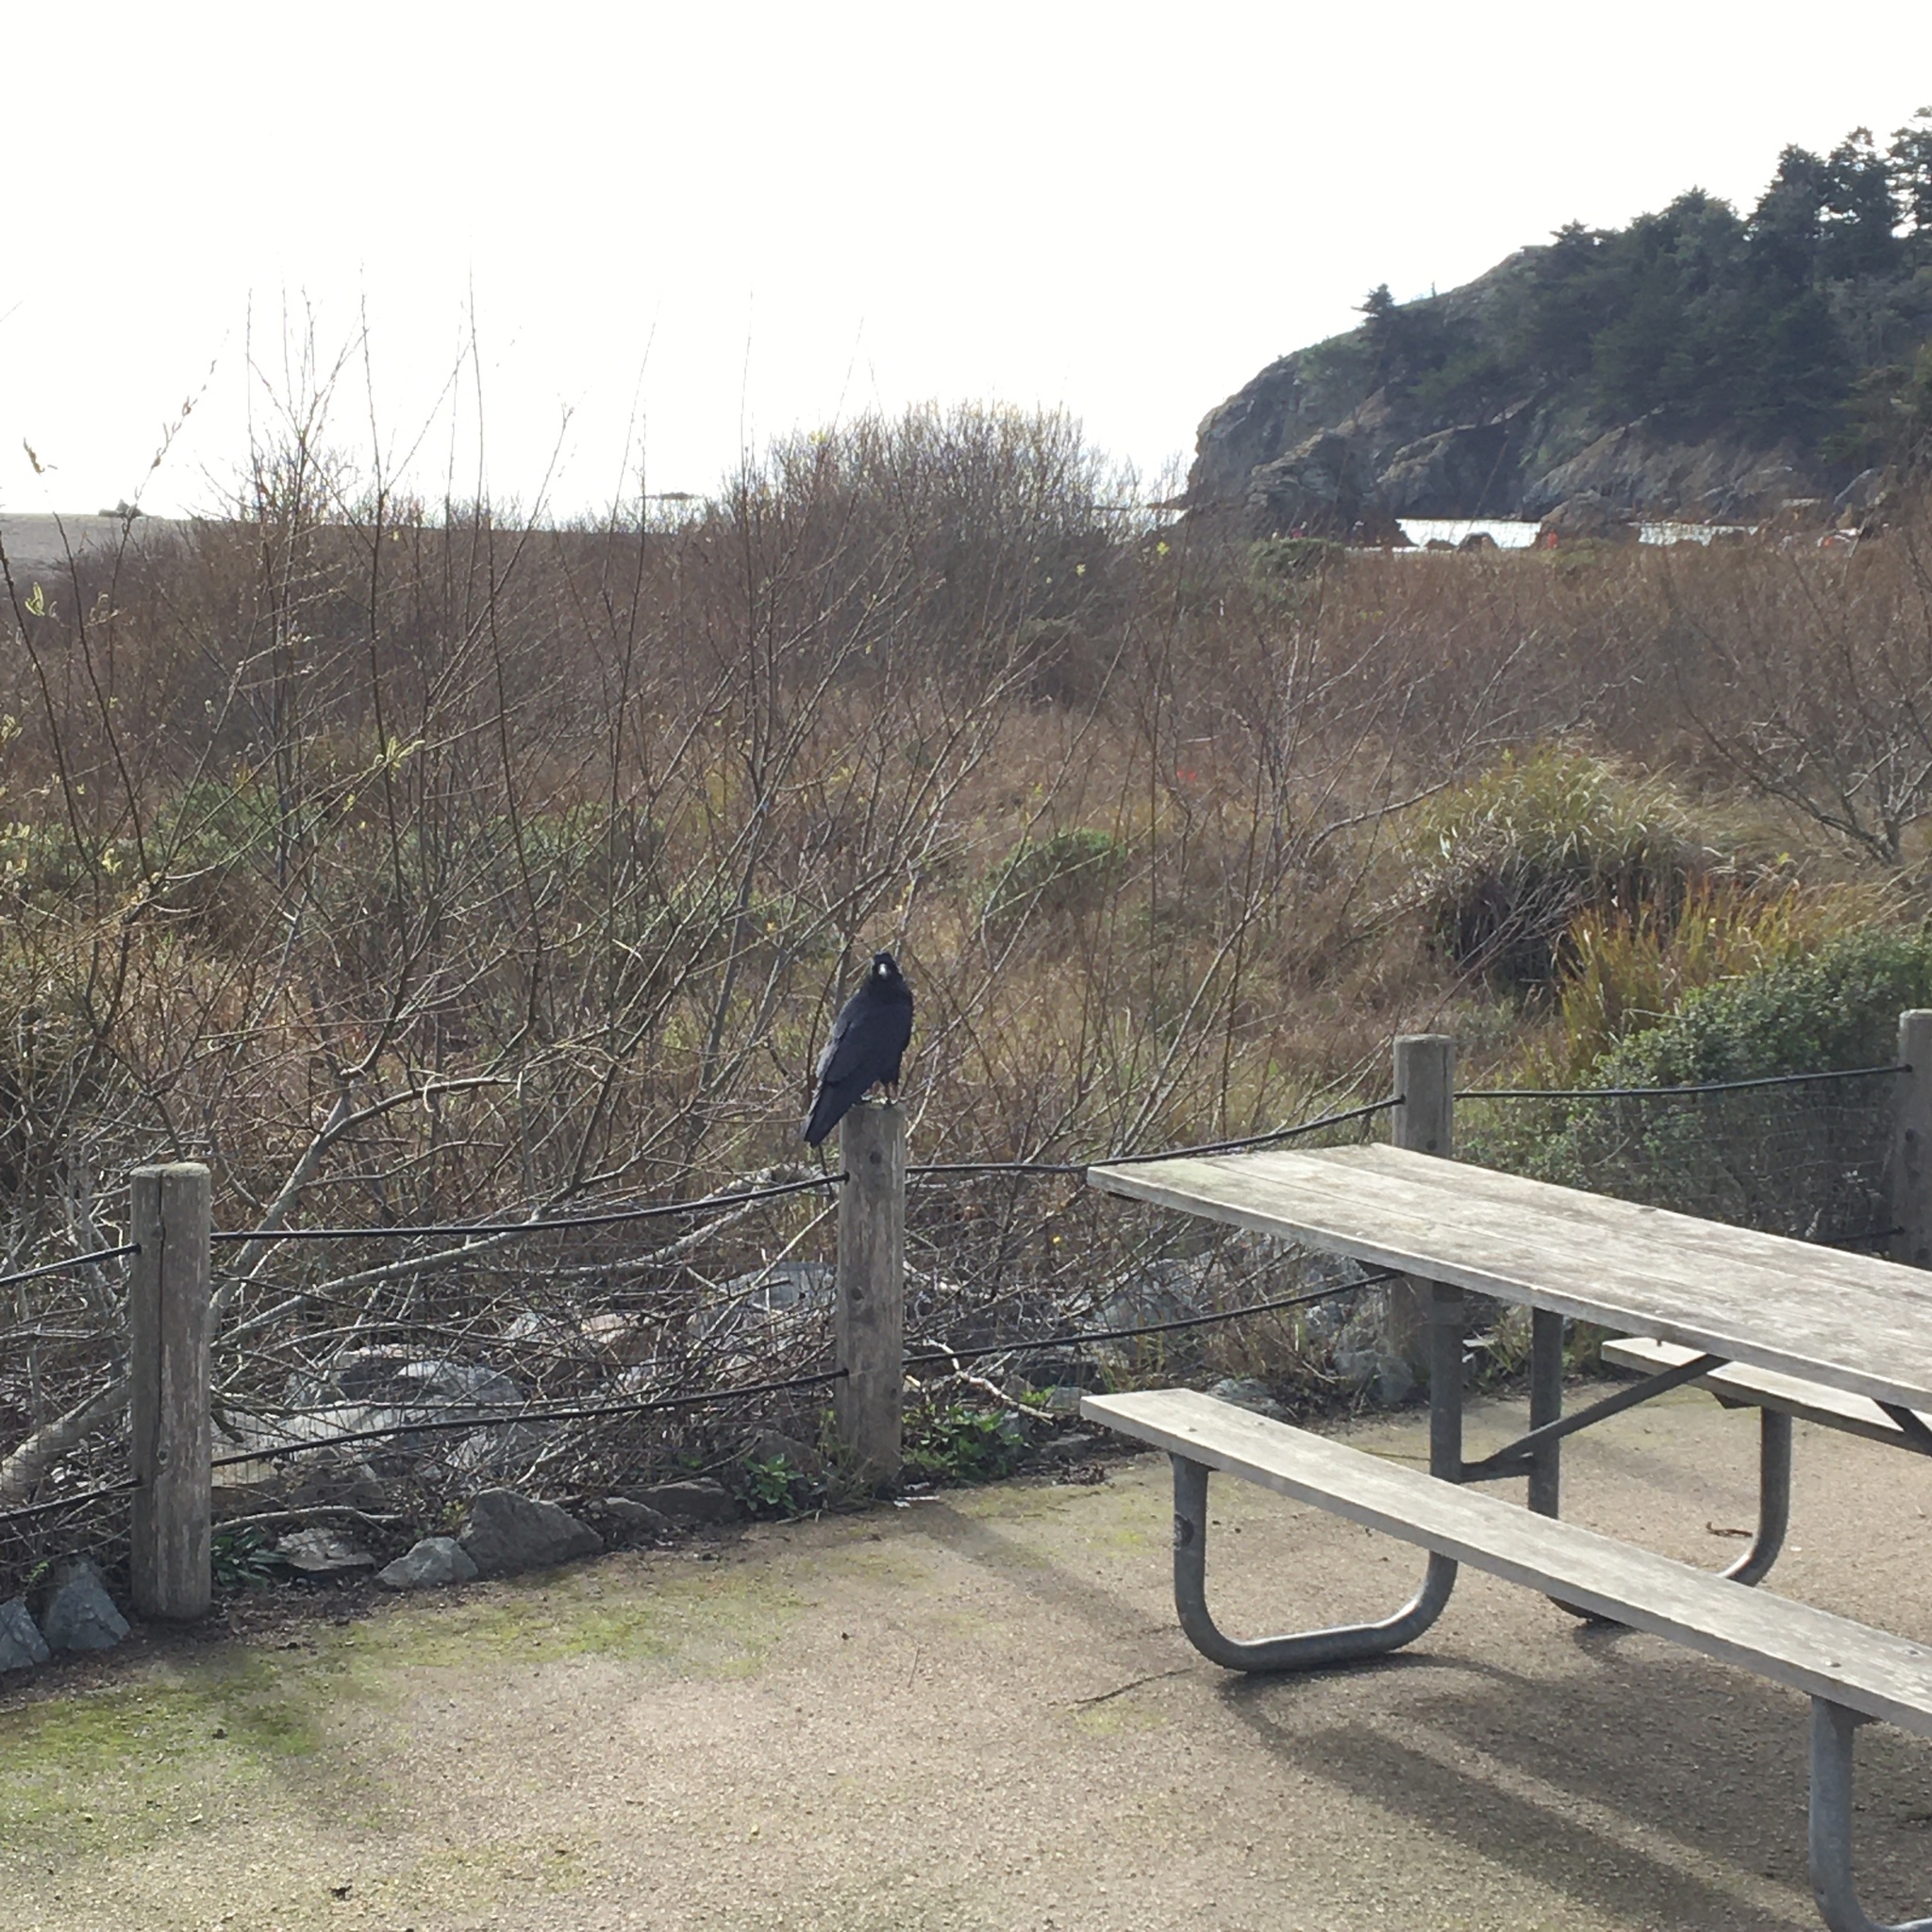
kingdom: Animalia
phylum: Chordata
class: Aves
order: Passeriformes
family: Corvidae
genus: Corvus
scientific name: Corvus
